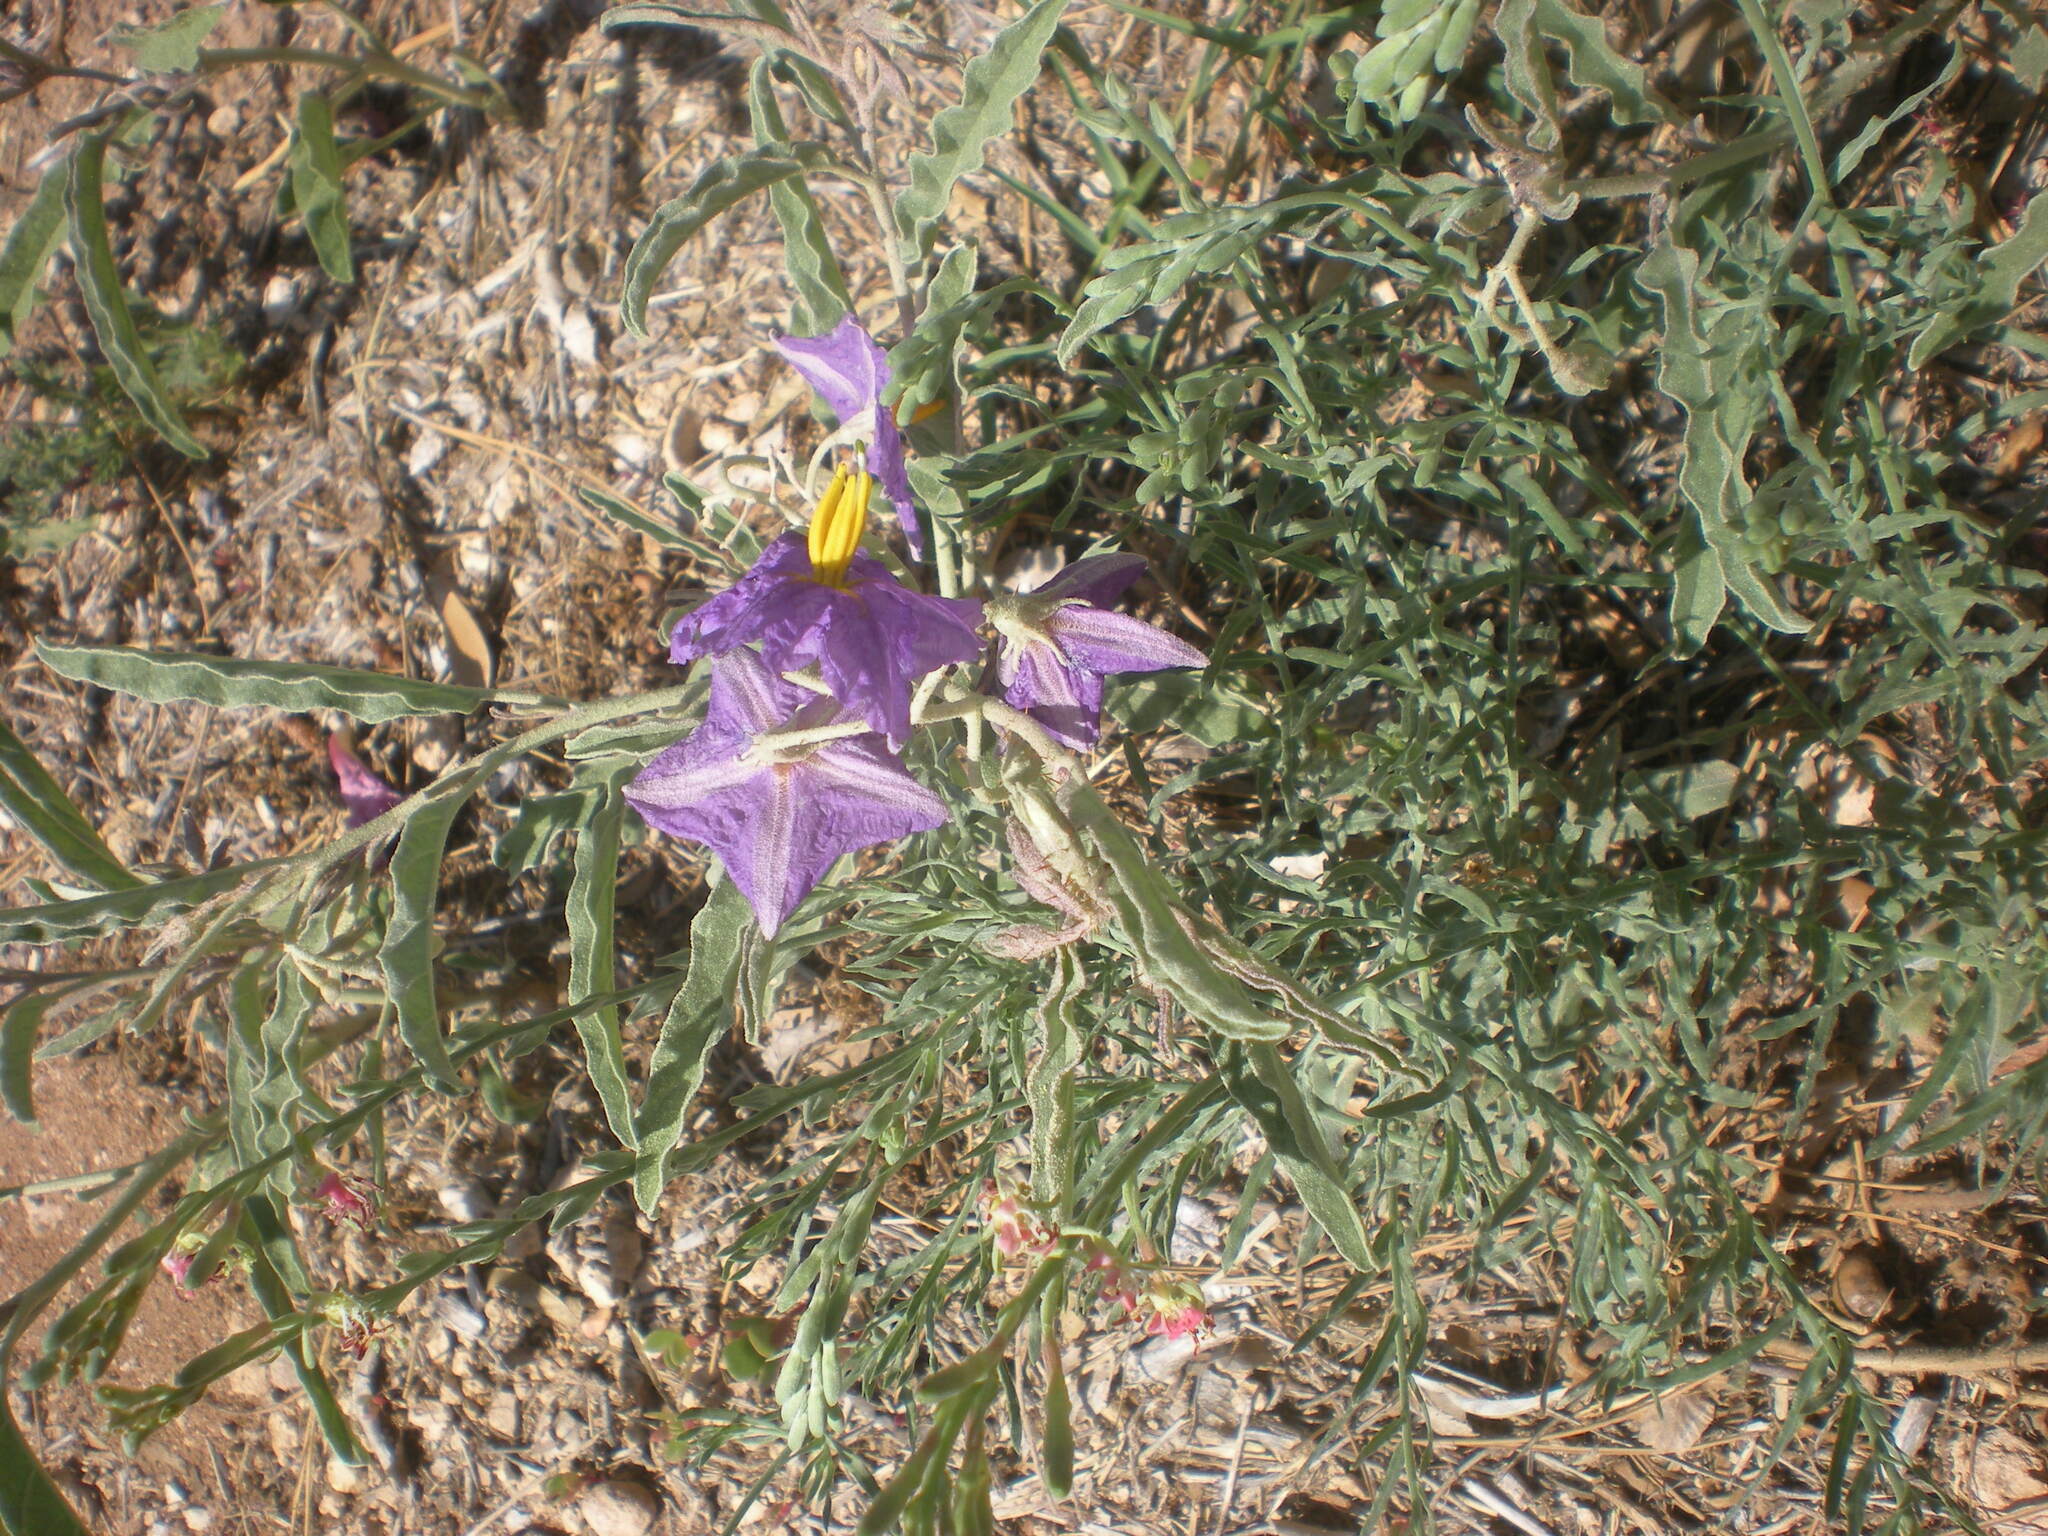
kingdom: Plantae
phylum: Tracheophyta
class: Magnoliopsida
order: Solanales
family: Solanaceae
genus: Solanum
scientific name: Solanum elaeagnifolium
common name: Silverleaf nightshade
